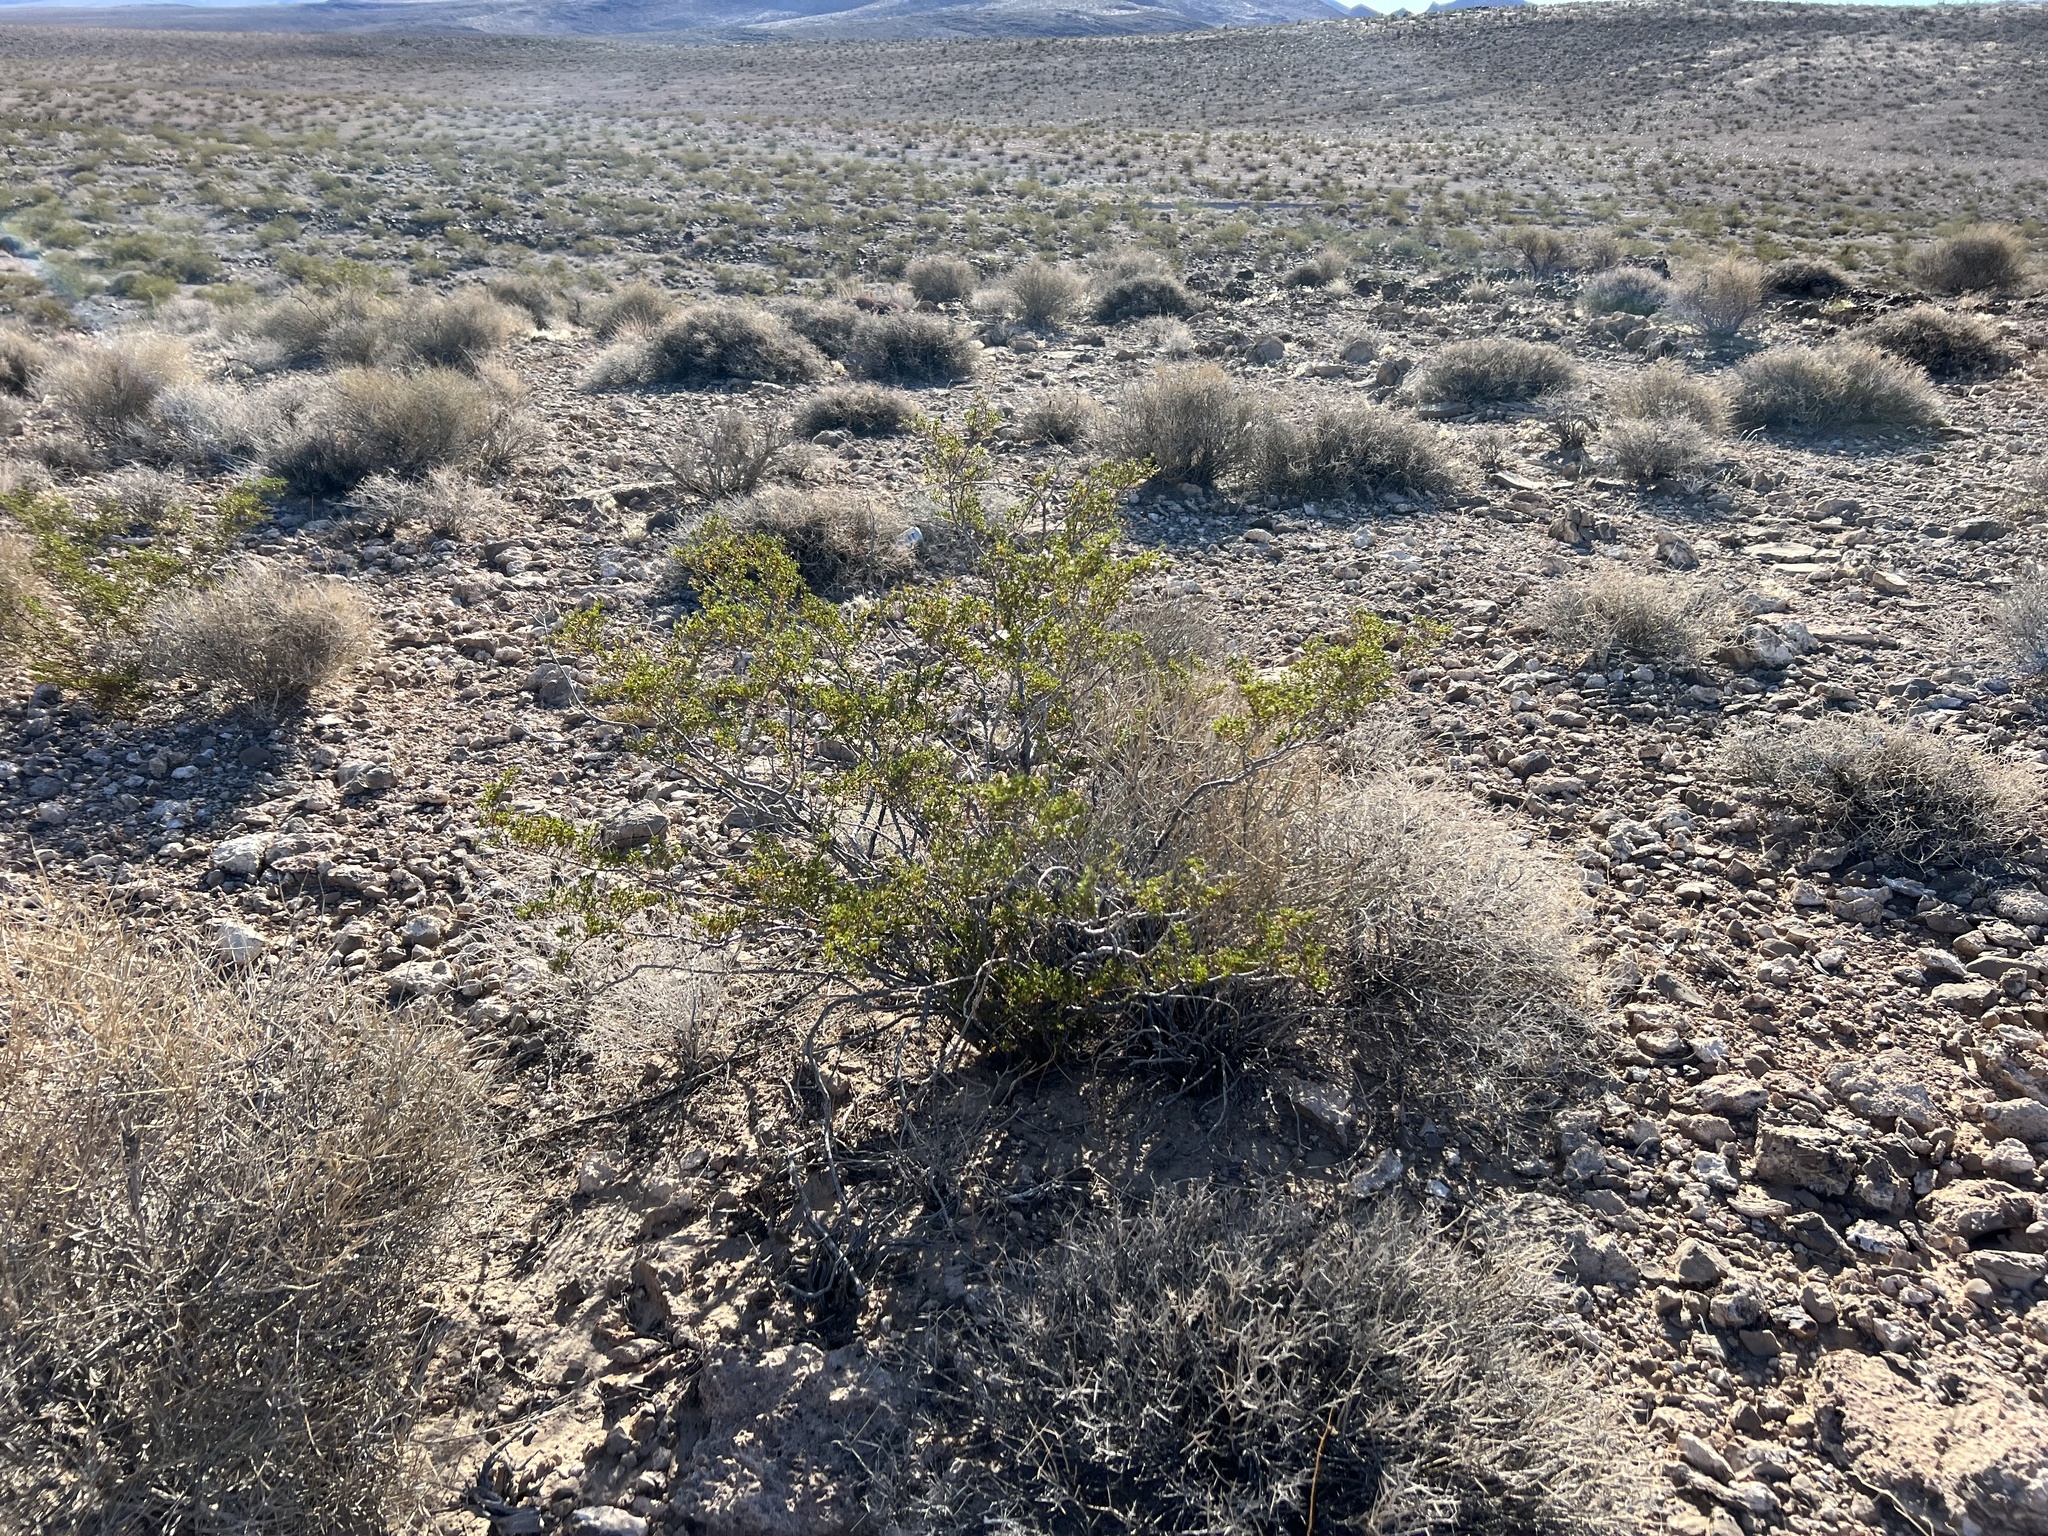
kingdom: Plantae
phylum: Tracheophyta
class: Magnoliopsida
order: Zygophyllales
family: Zygophyllaceae
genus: Larrea
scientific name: Larrea tridentata
